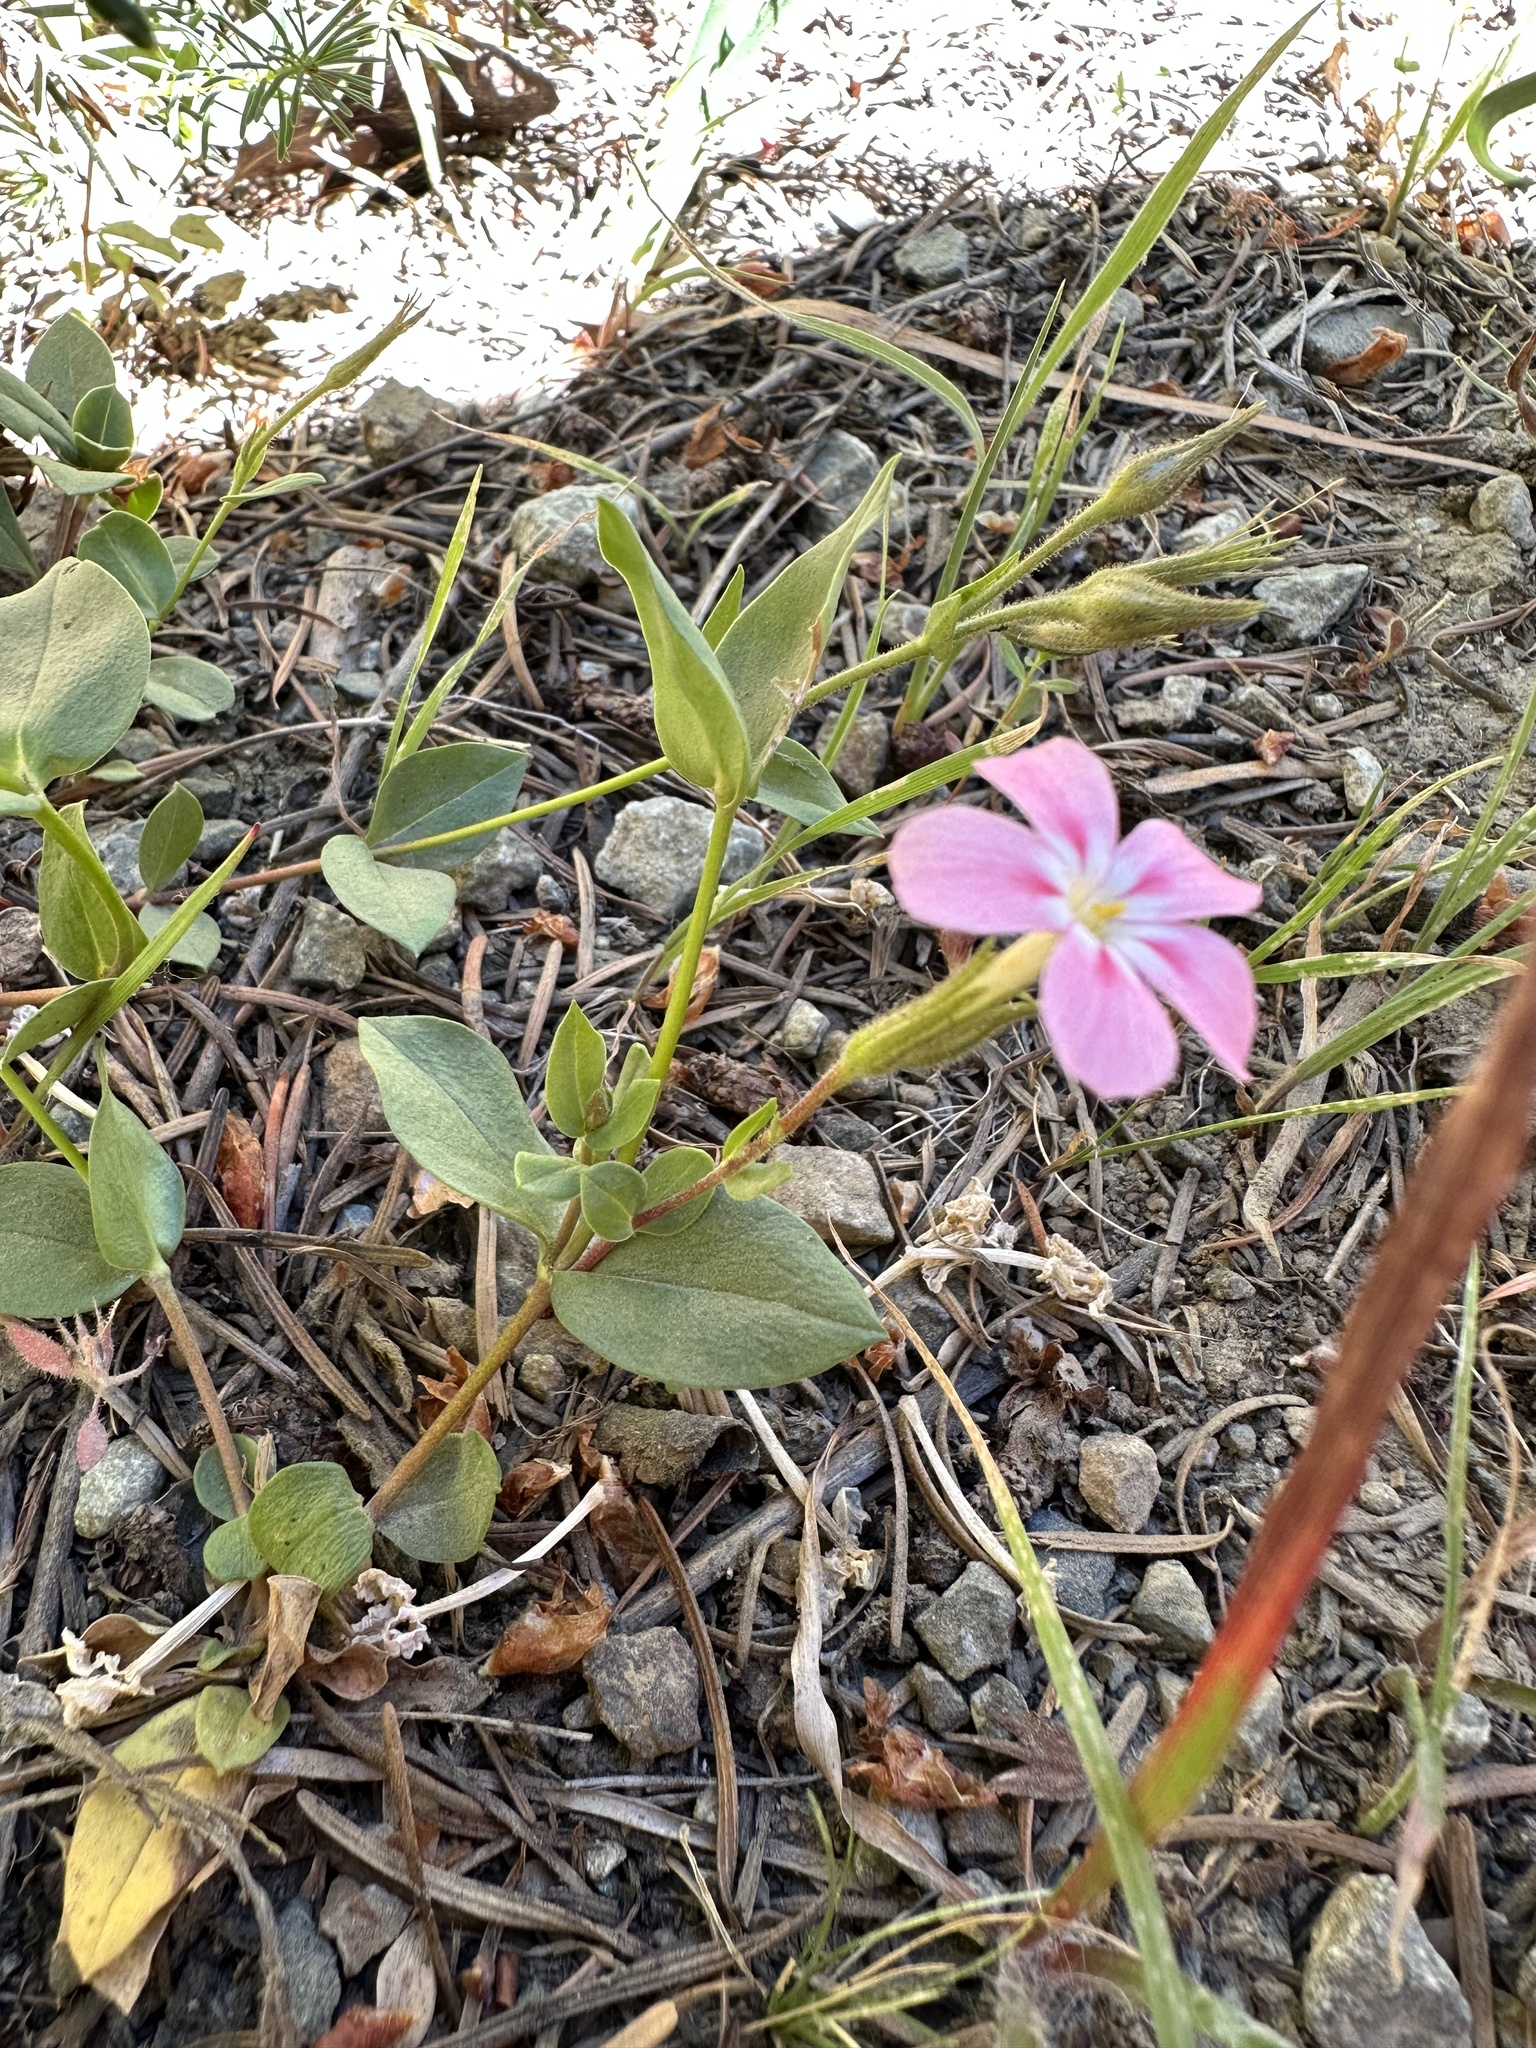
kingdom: Plantae
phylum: Tracheophyta
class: Magnoliopsida
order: Ericales
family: Polemoniaceae
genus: Phlox
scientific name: Phlox adsurgens
